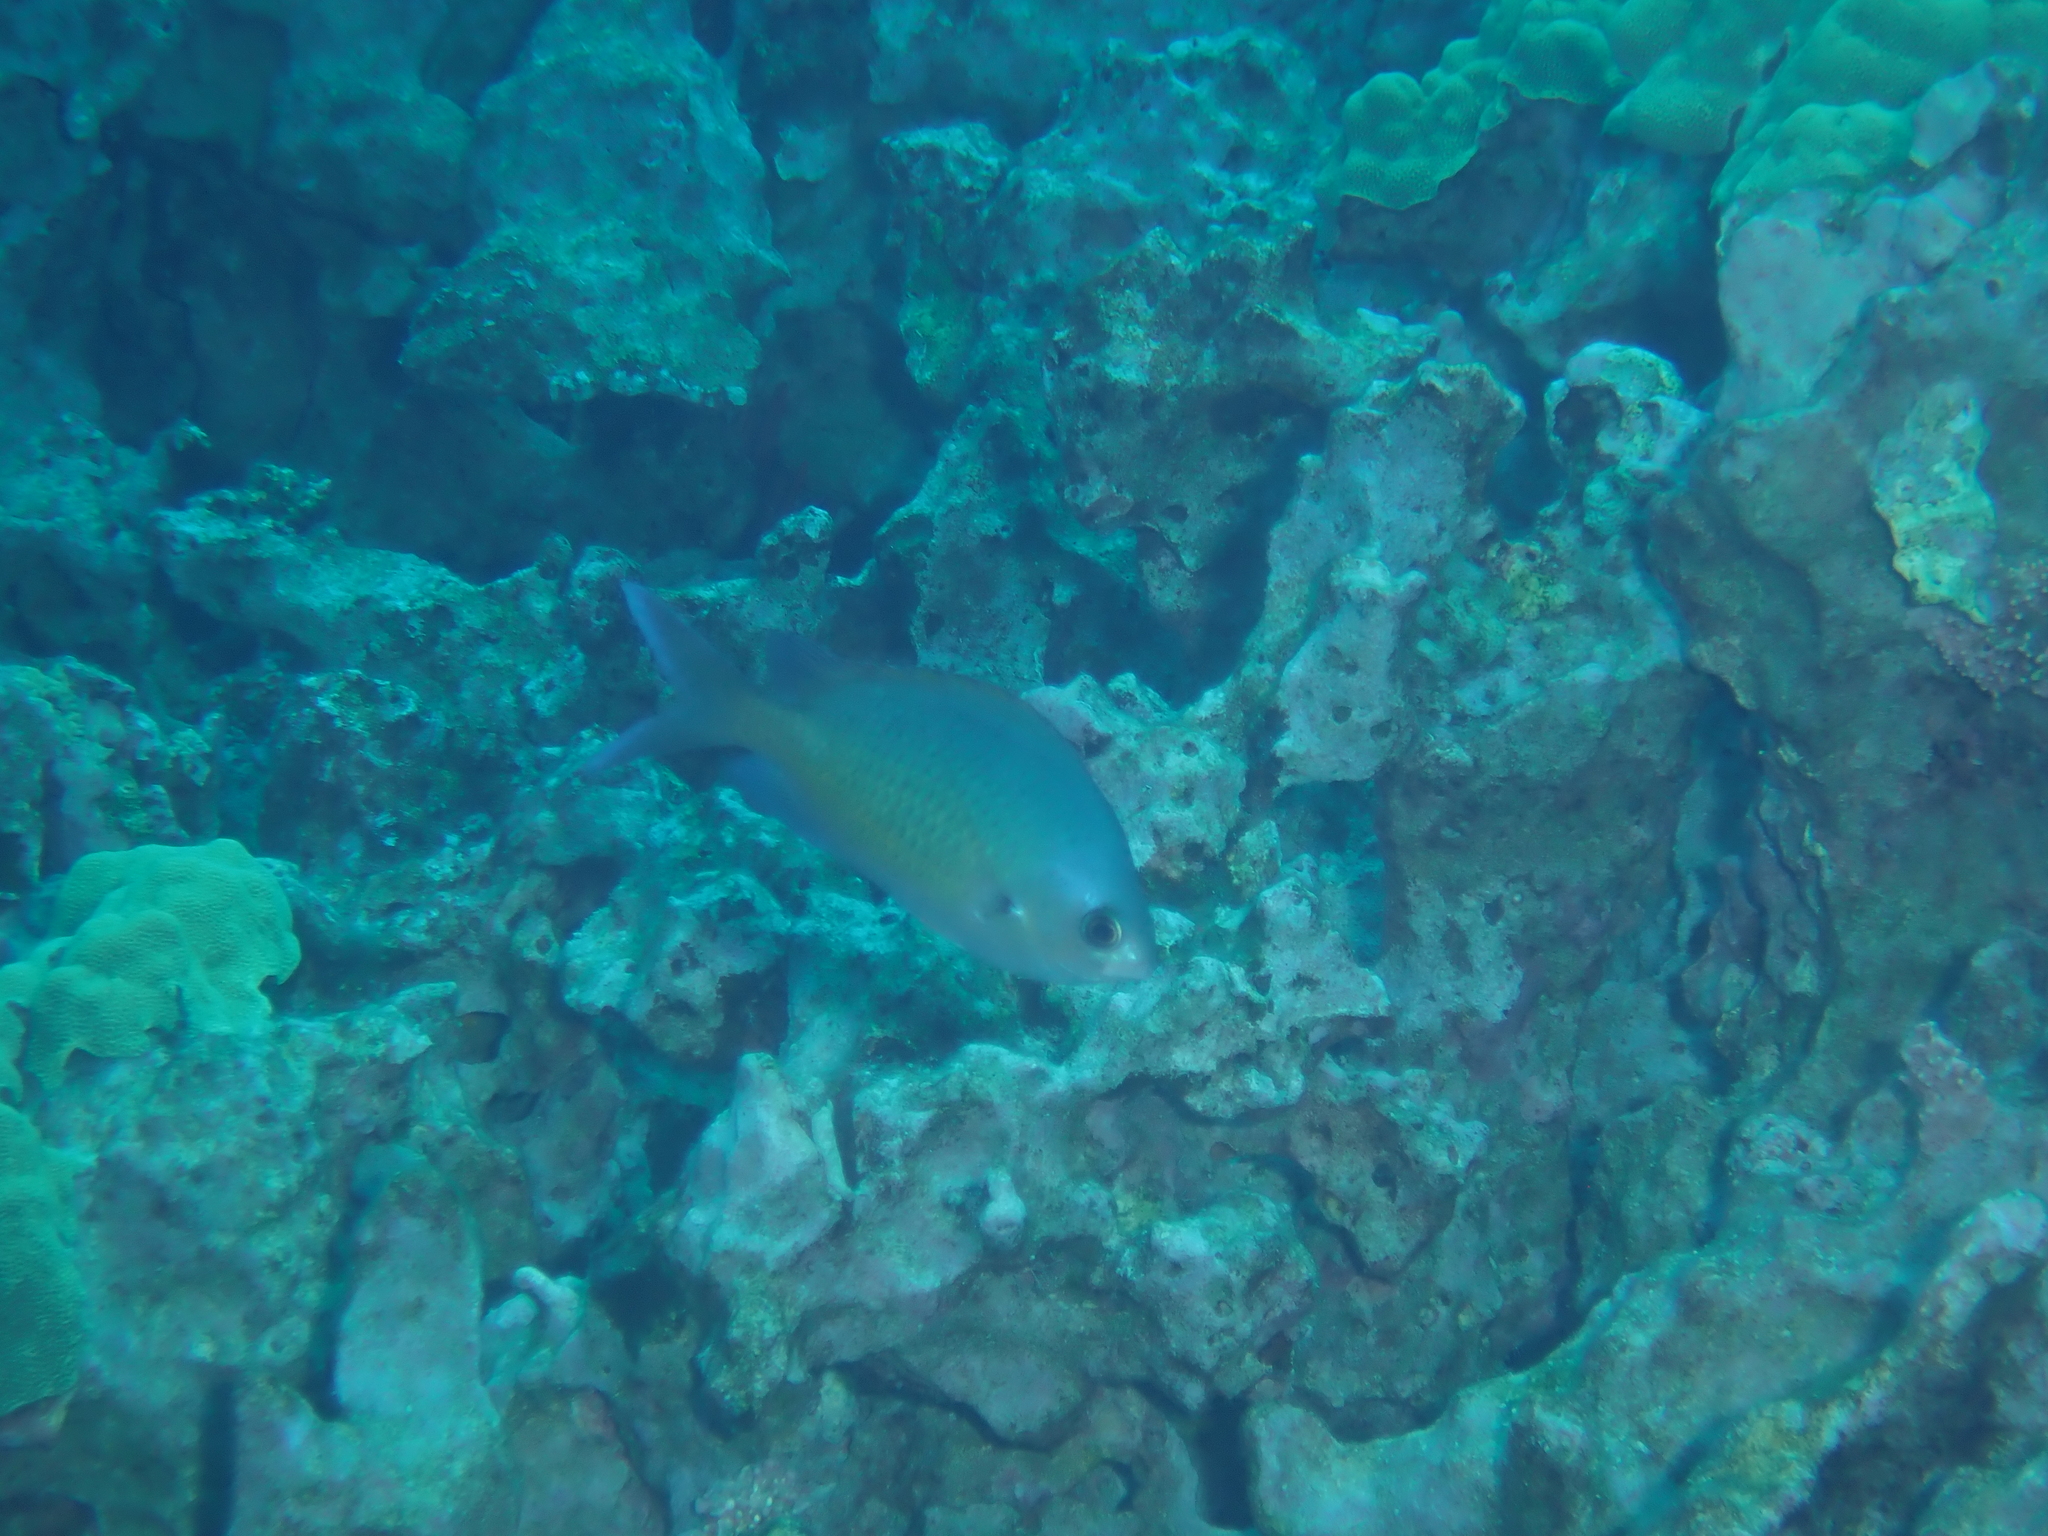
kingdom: Animalia
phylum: Chordata
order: Perciformes
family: Pomacentridae
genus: Chromis
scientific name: Chromis ovalis
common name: Blue damsel
